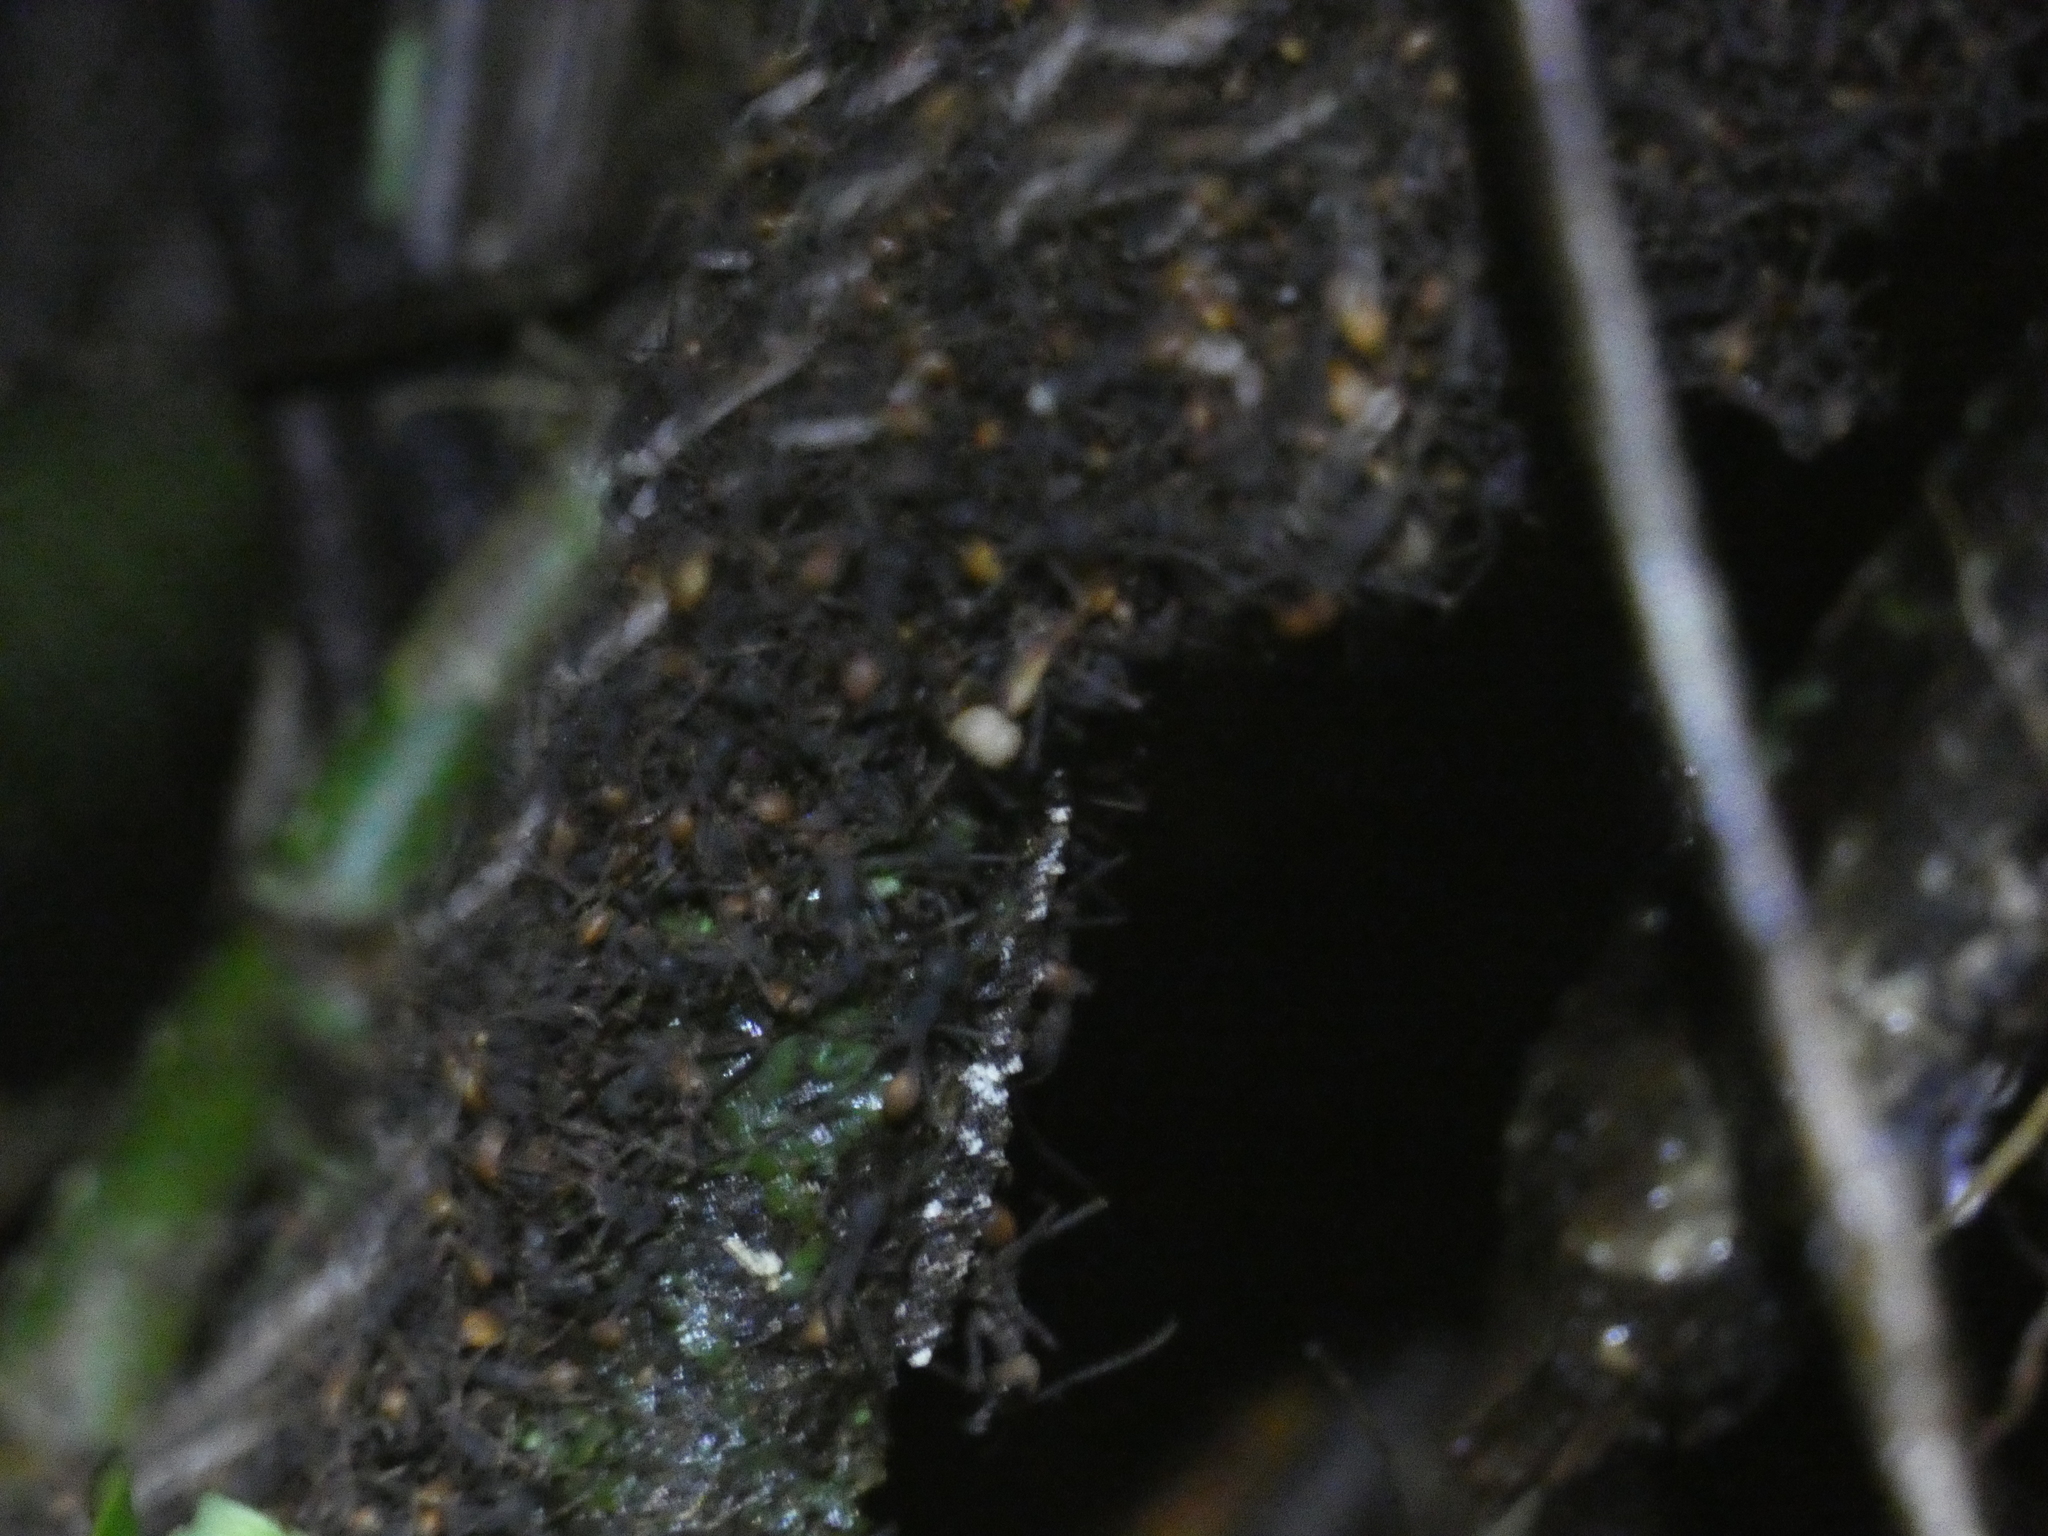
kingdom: Animalia
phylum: Arthropoda
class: Insecta
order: Hymenoptera
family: Formicidae
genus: Eciton
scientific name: Eciton burchellii
